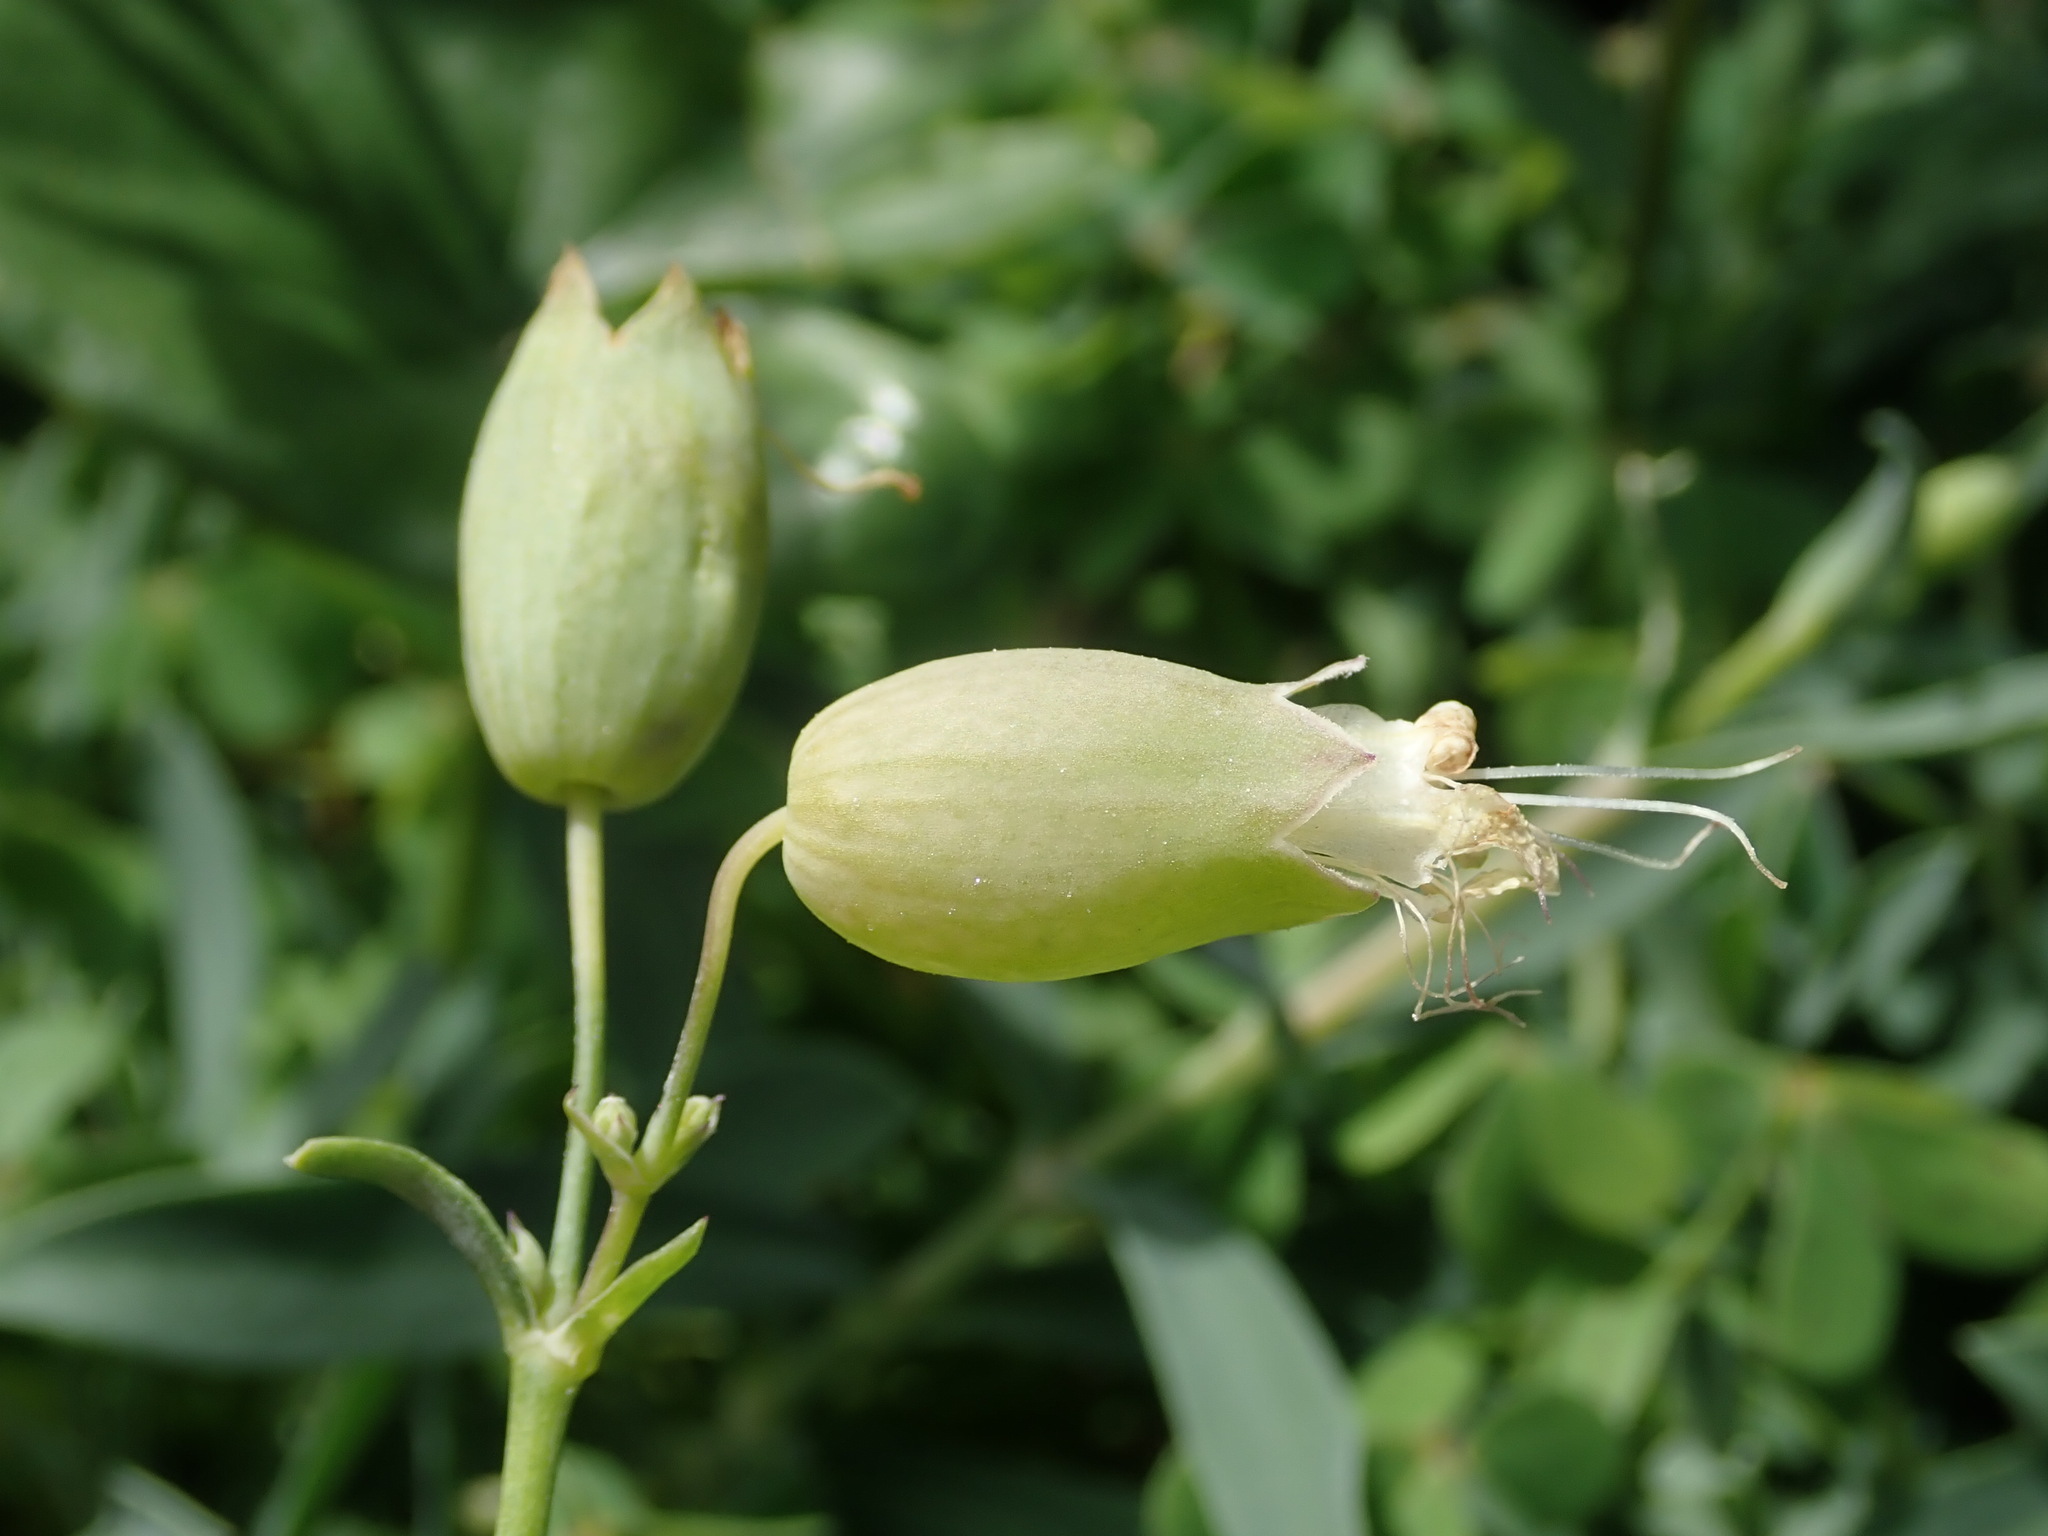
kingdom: Plantae
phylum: Tracheophyta
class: Magnoliopsida
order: Caryophyllales
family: Caryophyllaceae
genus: Silene
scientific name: Silene vulgaris
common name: Bladder campion
